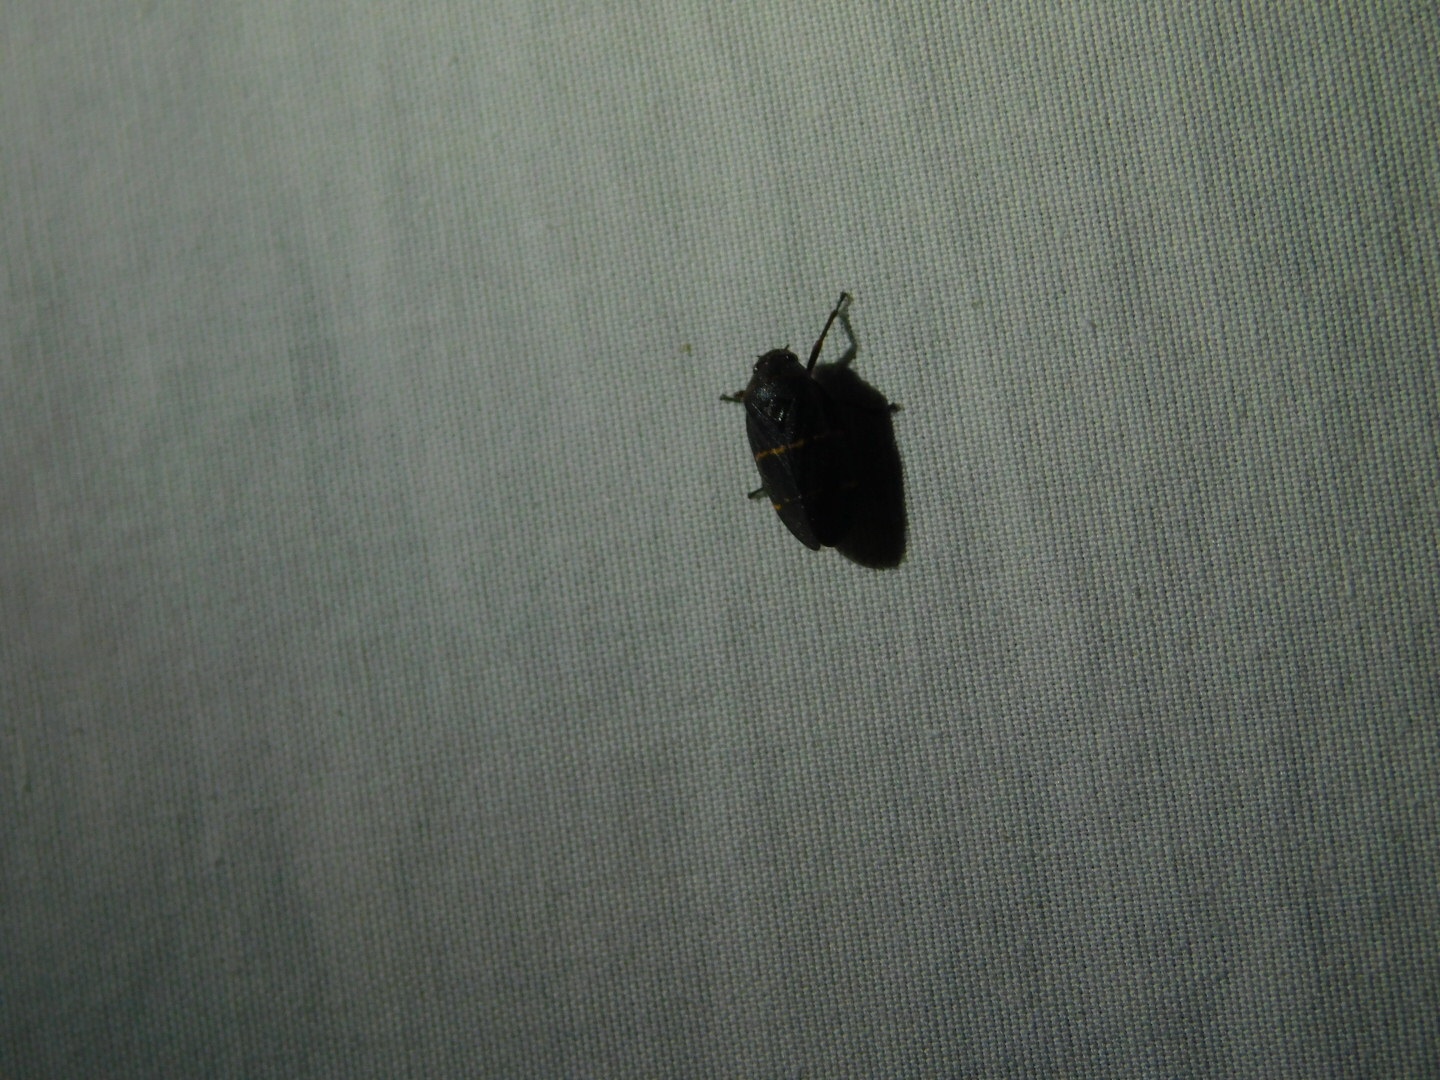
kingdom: Animalia
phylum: Arthropoda
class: Insecta
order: Hemiptera
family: Cercopidae
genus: Prosapia
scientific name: Prosapia bicincta
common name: Twolined spittlebug
